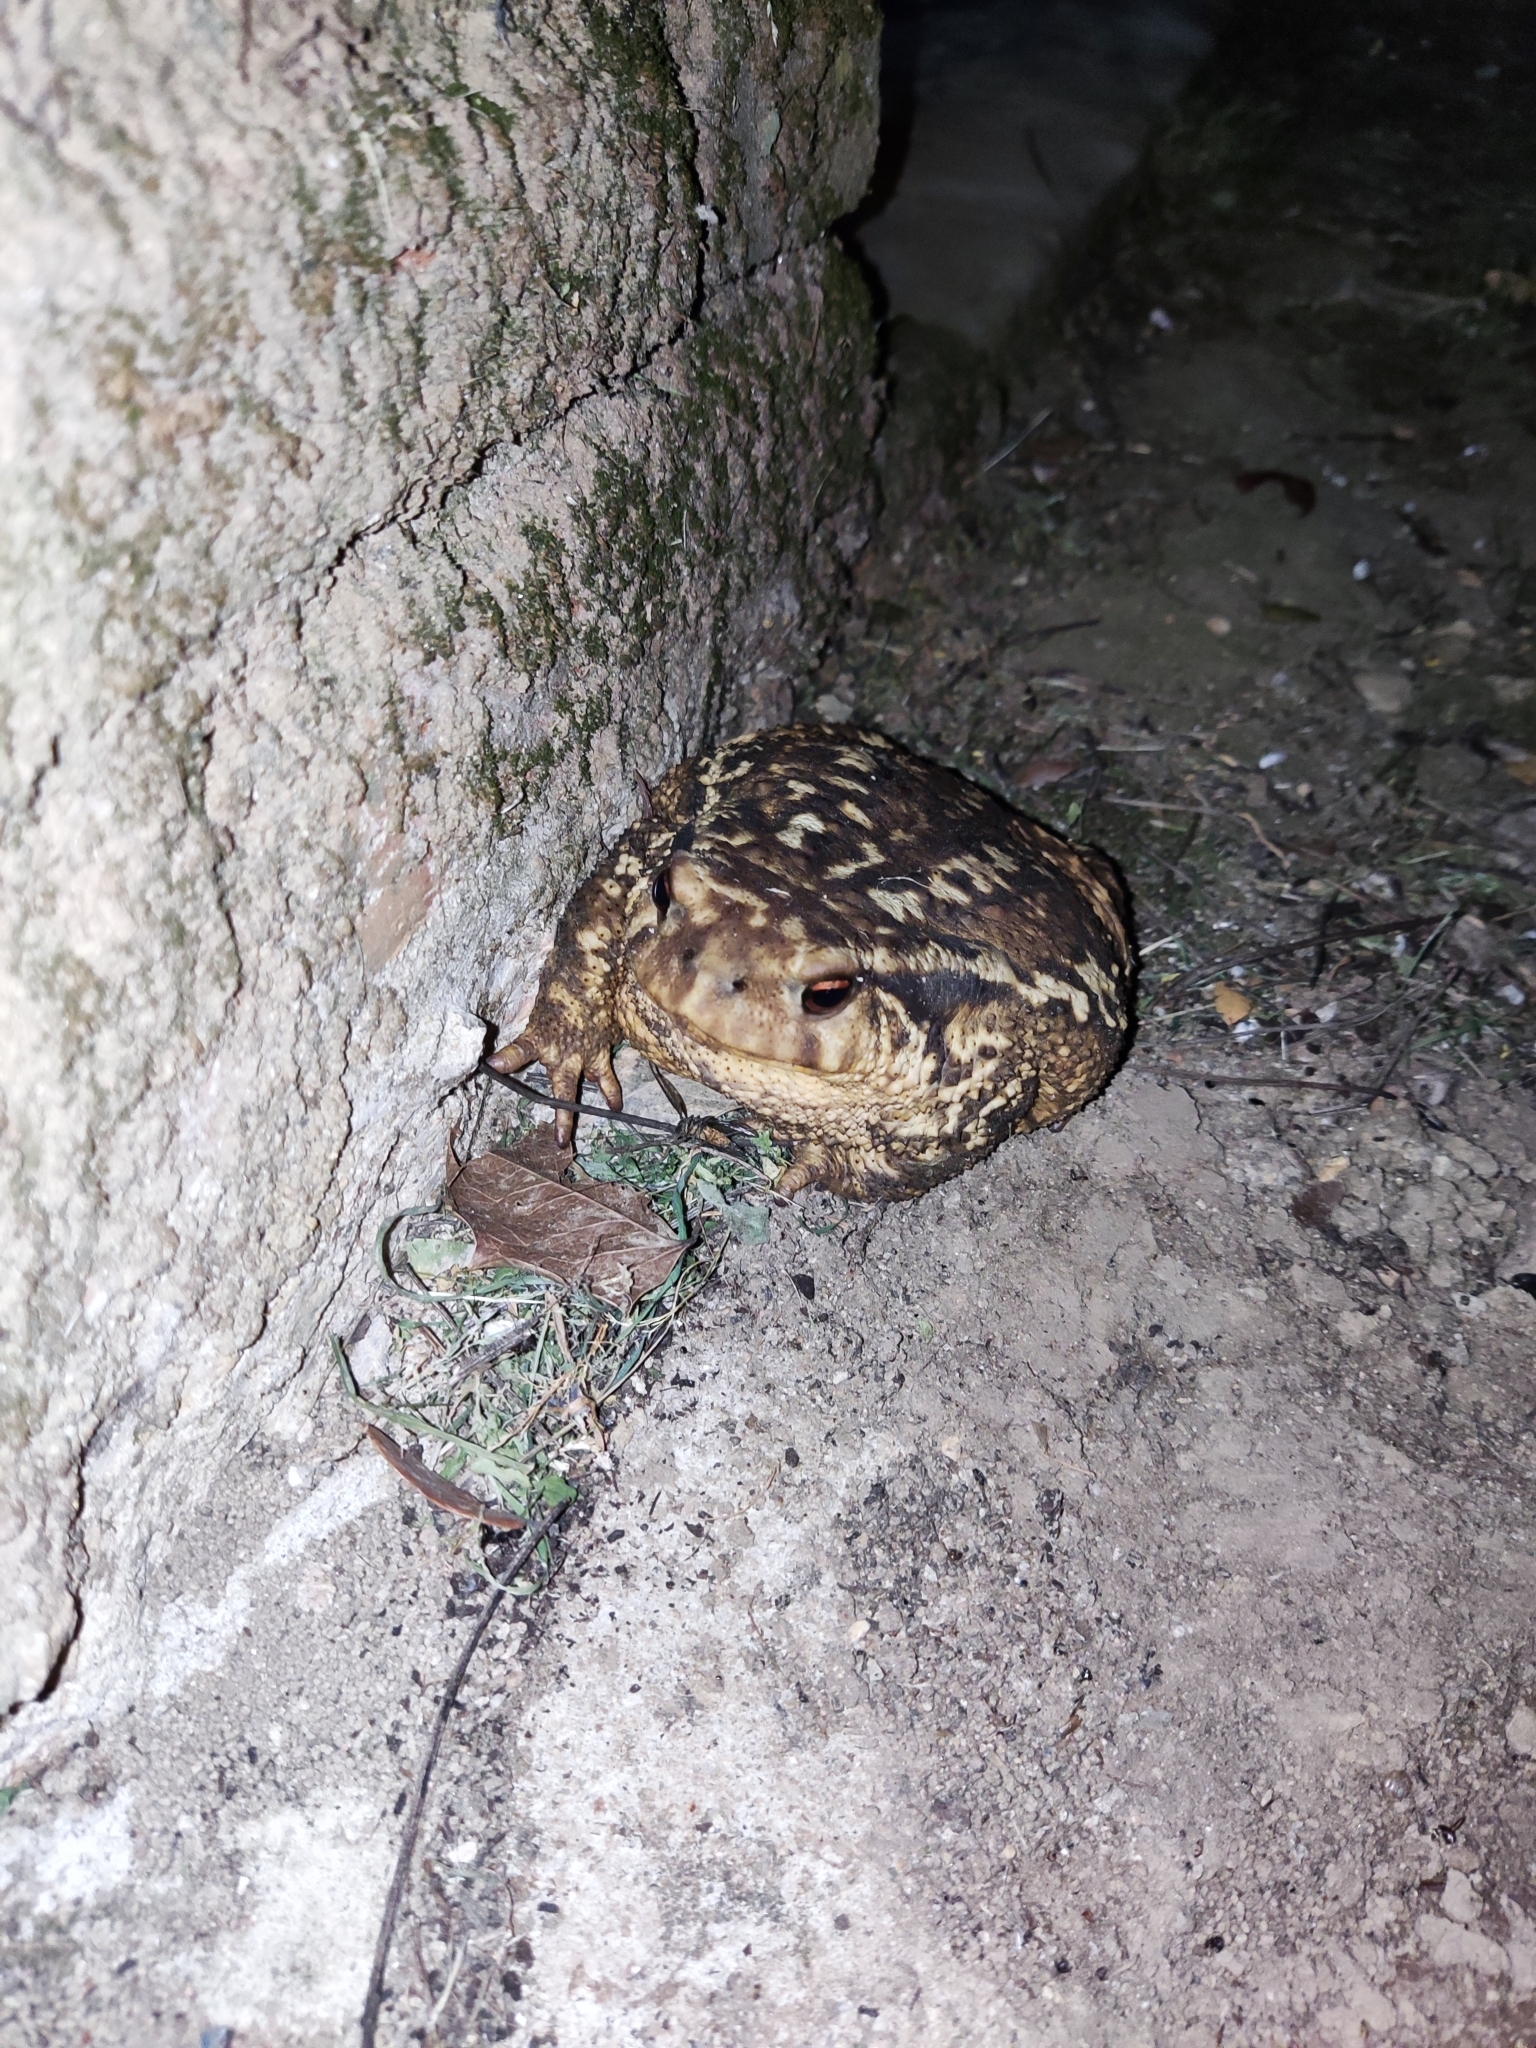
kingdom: Animalia
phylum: Chordata
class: Amphibia
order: Anura
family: Bufonidae
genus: Bufo
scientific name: Bufo spinosus
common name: Western common toad
